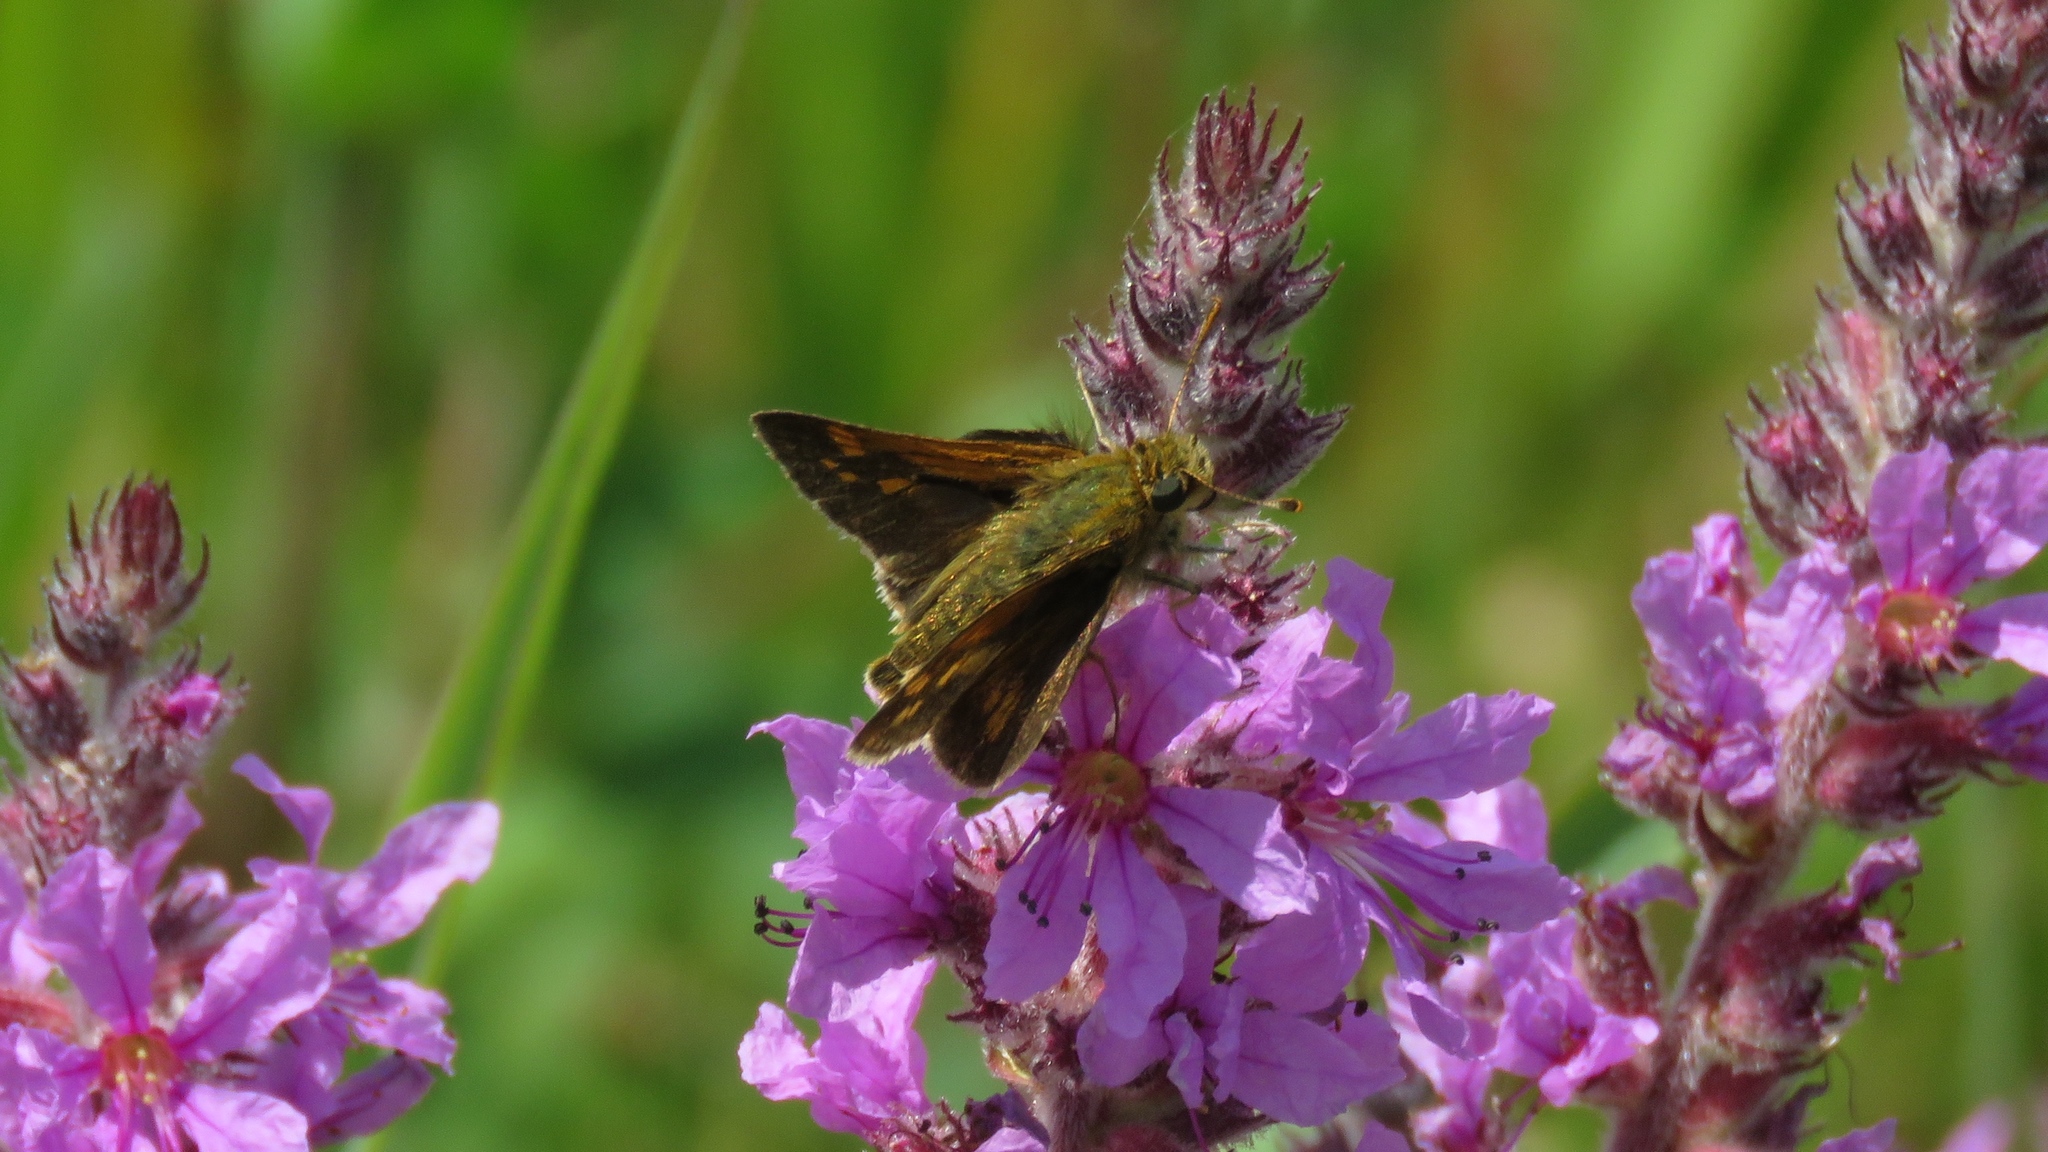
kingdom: Animalia
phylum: Arthropoda
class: Insecta
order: Lepidoptera
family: Hesperiidae
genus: Polites
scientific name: Polites coras
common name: Peck's skipper
